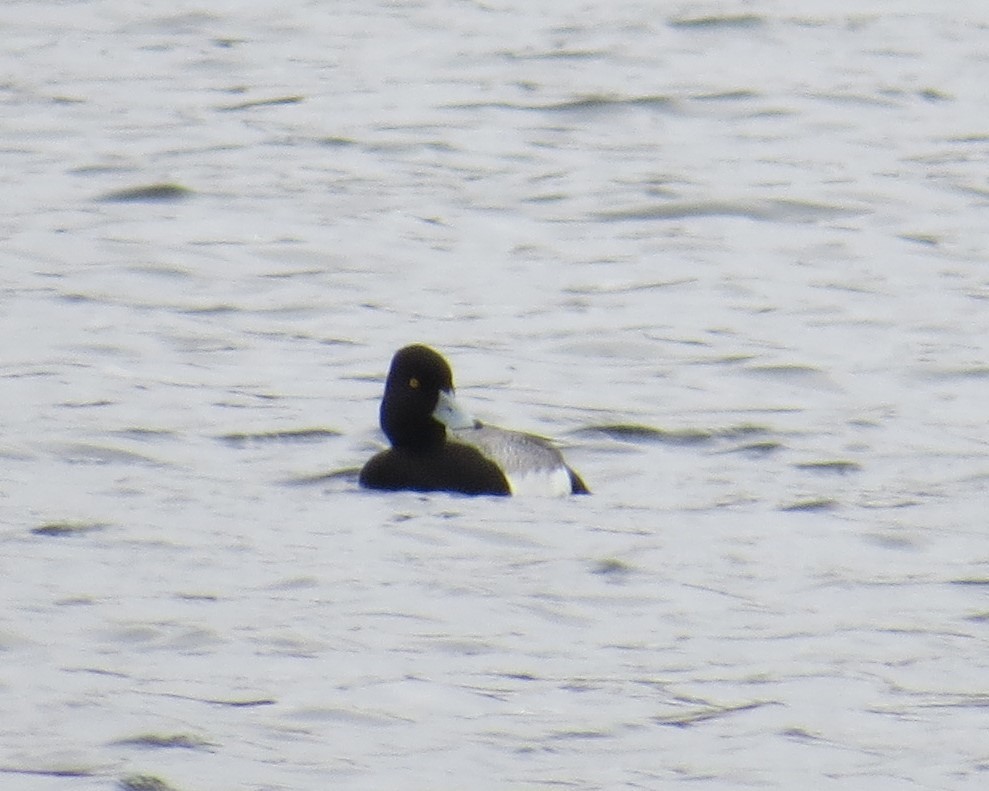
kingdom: Animalia
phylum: Chordata
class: Aves
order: Anseriformes
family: Anatidae
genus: Aythya
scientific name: Aythya affinis
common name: Lesser scaup
